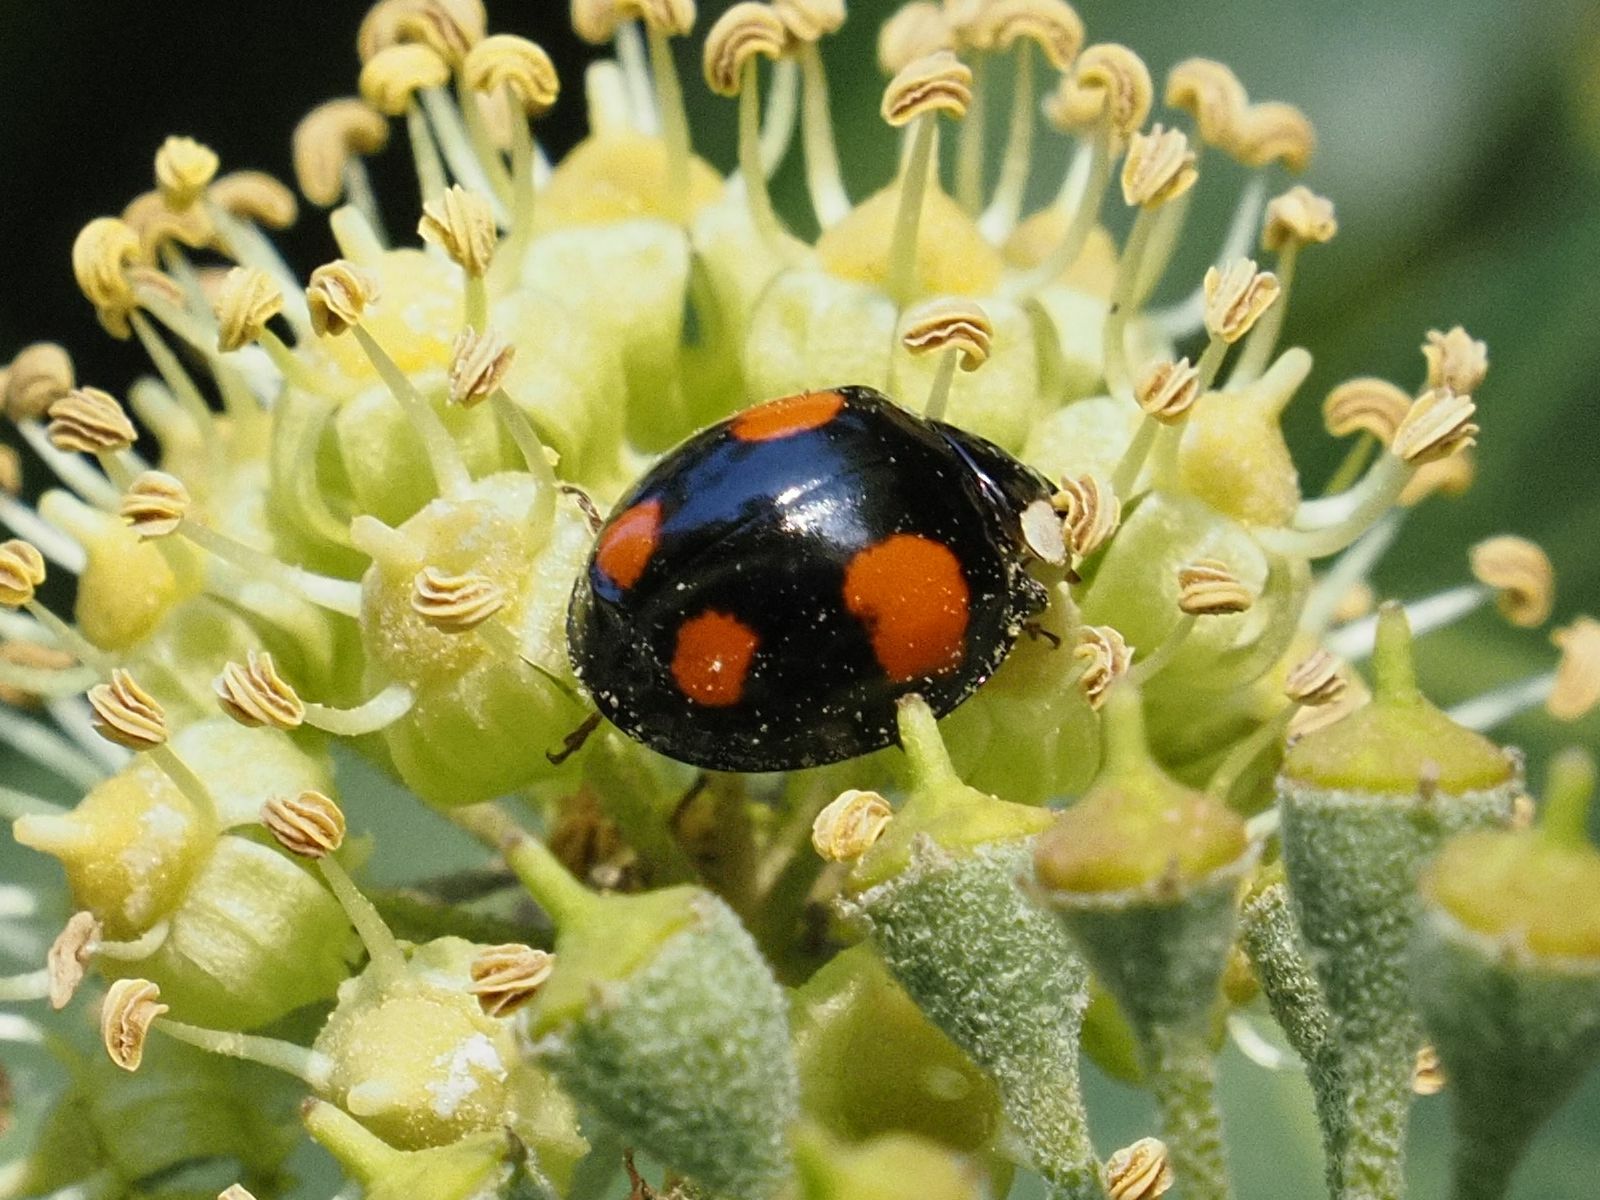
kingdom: Animalia
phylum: Arthropoda
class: Insecta
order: Coleoptera
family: Coccinellidae
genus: Harmonia
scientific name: Harmonia axyridis
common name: Harlequin ladybird
